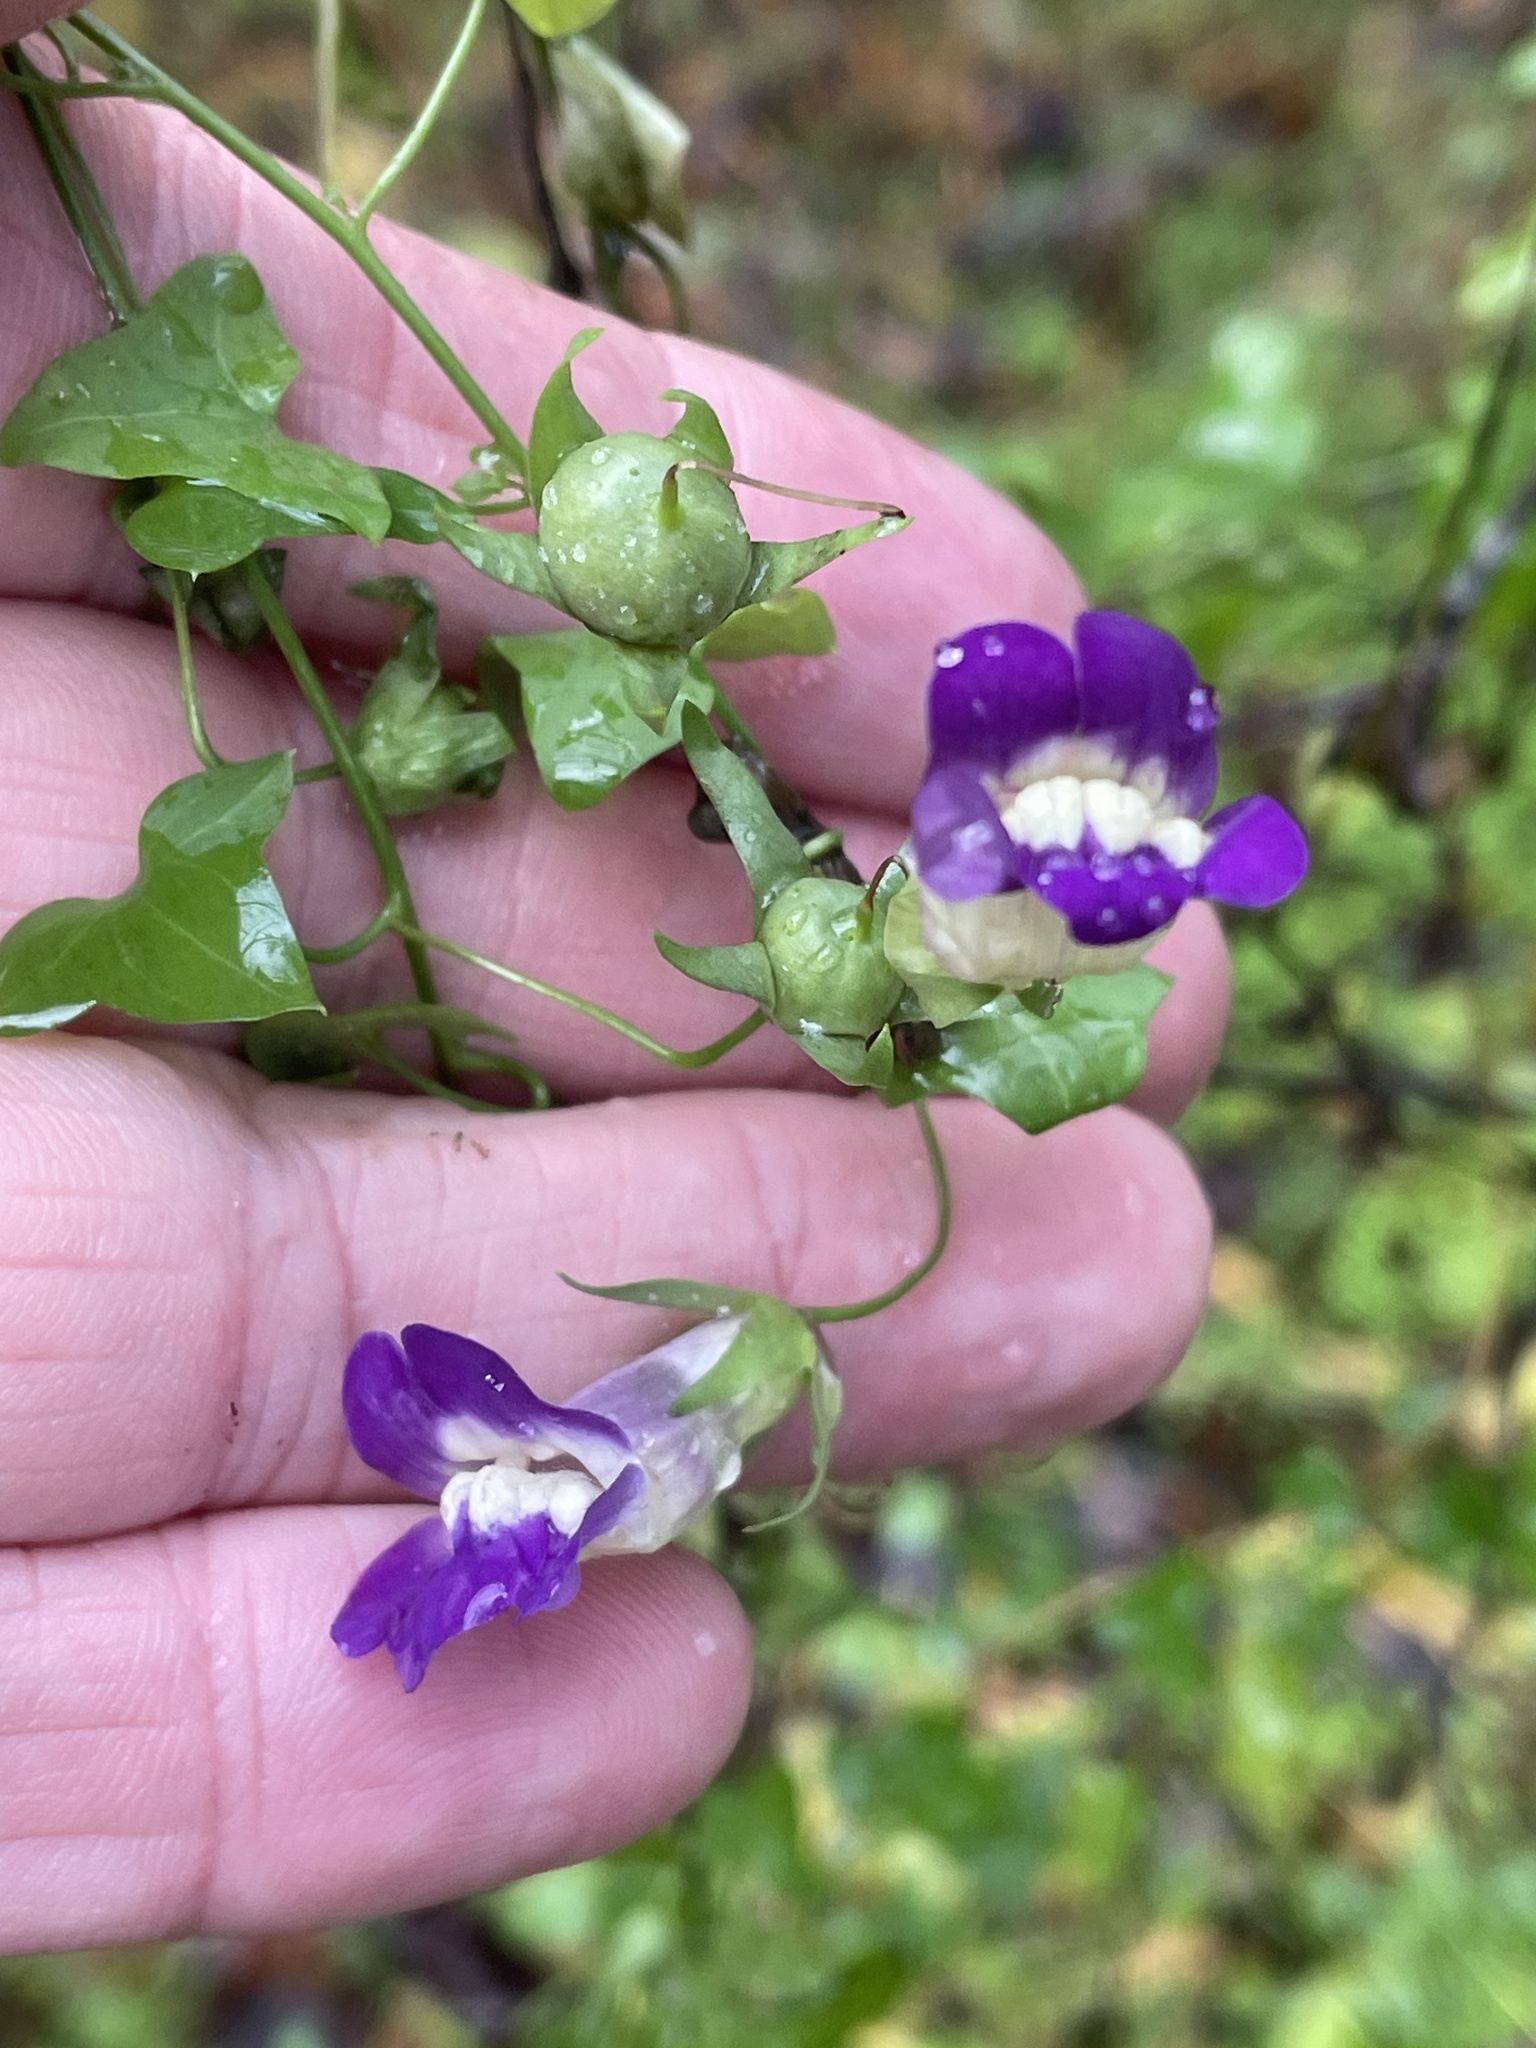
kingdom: Plantae
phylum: Tracheophyta
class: Magnoliopsida
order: Lamiales
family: Plantaginaceae
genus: Maurandella
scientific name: Maurandella antirrhiniflora
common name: Violet twining-snapdragon
